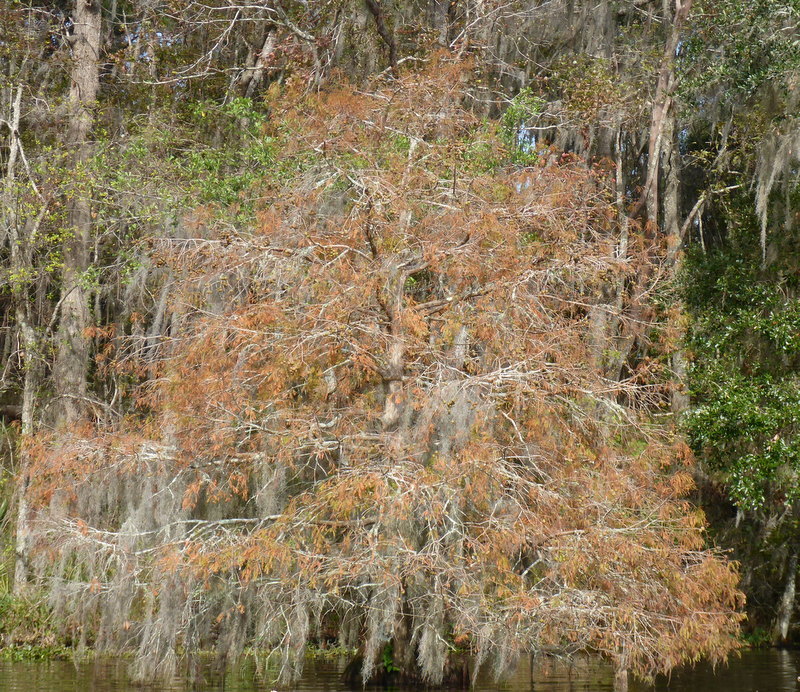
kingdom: Plantae
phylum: Tracheophyta
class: Pinopsida
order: Pinales
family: Cupressaceae
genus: Taxodium
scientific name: Taxodium distichum
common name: Bald cypress
